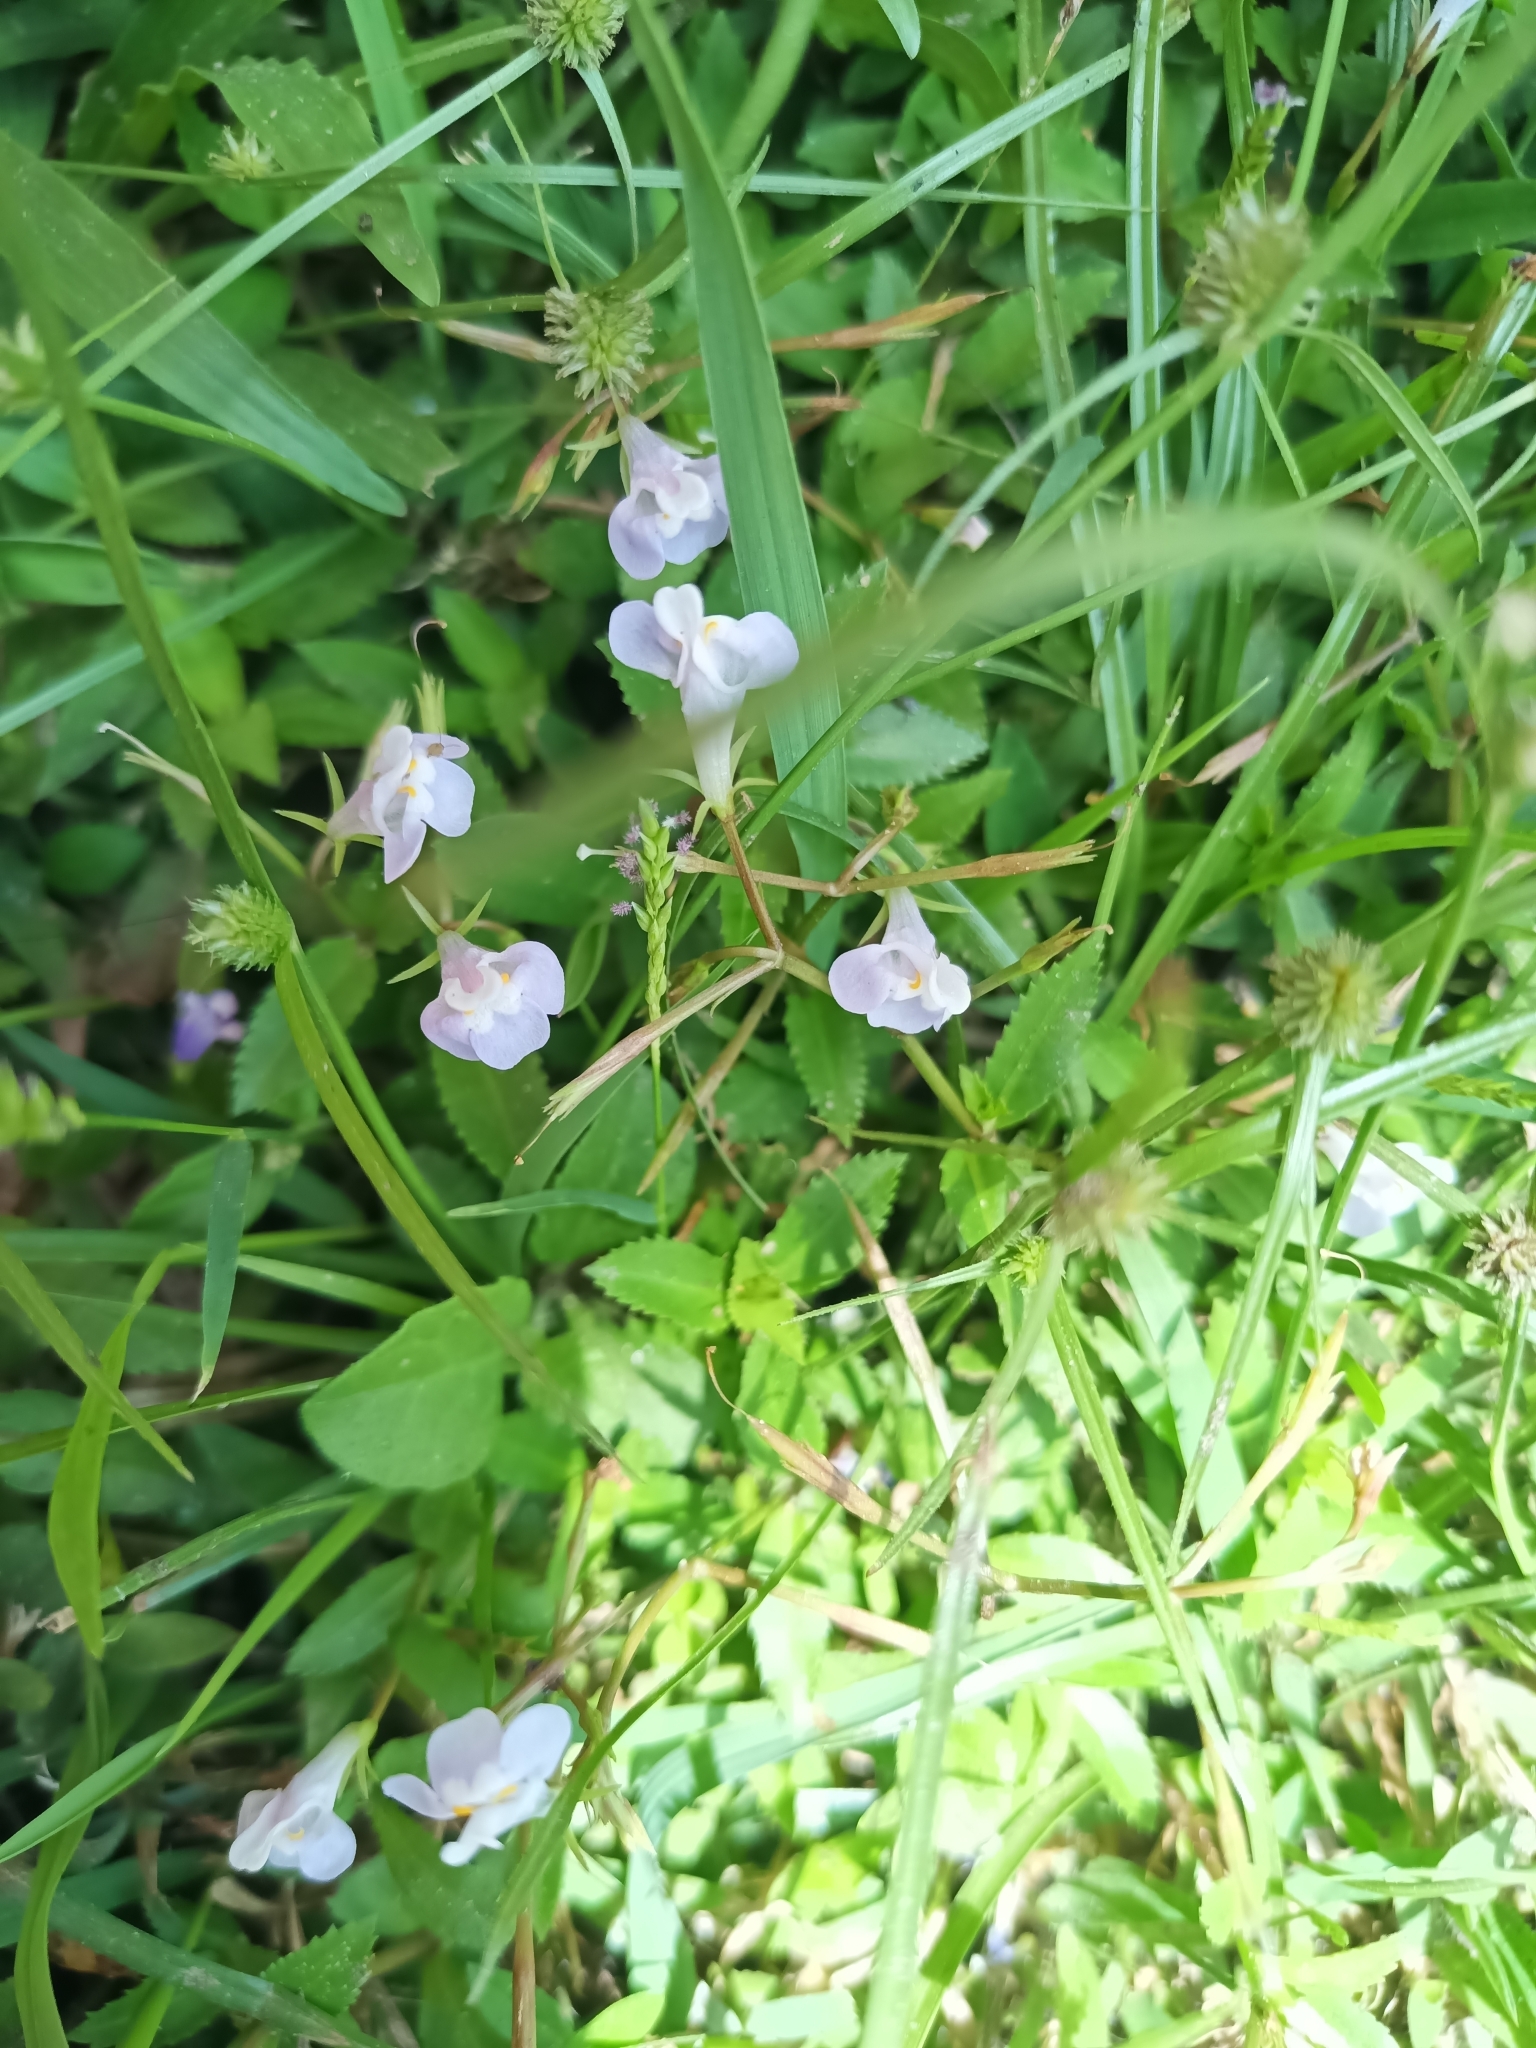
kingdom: Plantae
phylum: Tracheophyta
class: Magnoliopsida
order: Lamiales
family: Linderniaceae
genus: Bonnaya
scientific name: Bonnaya antipoda
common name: Sparrow false pimpernel
